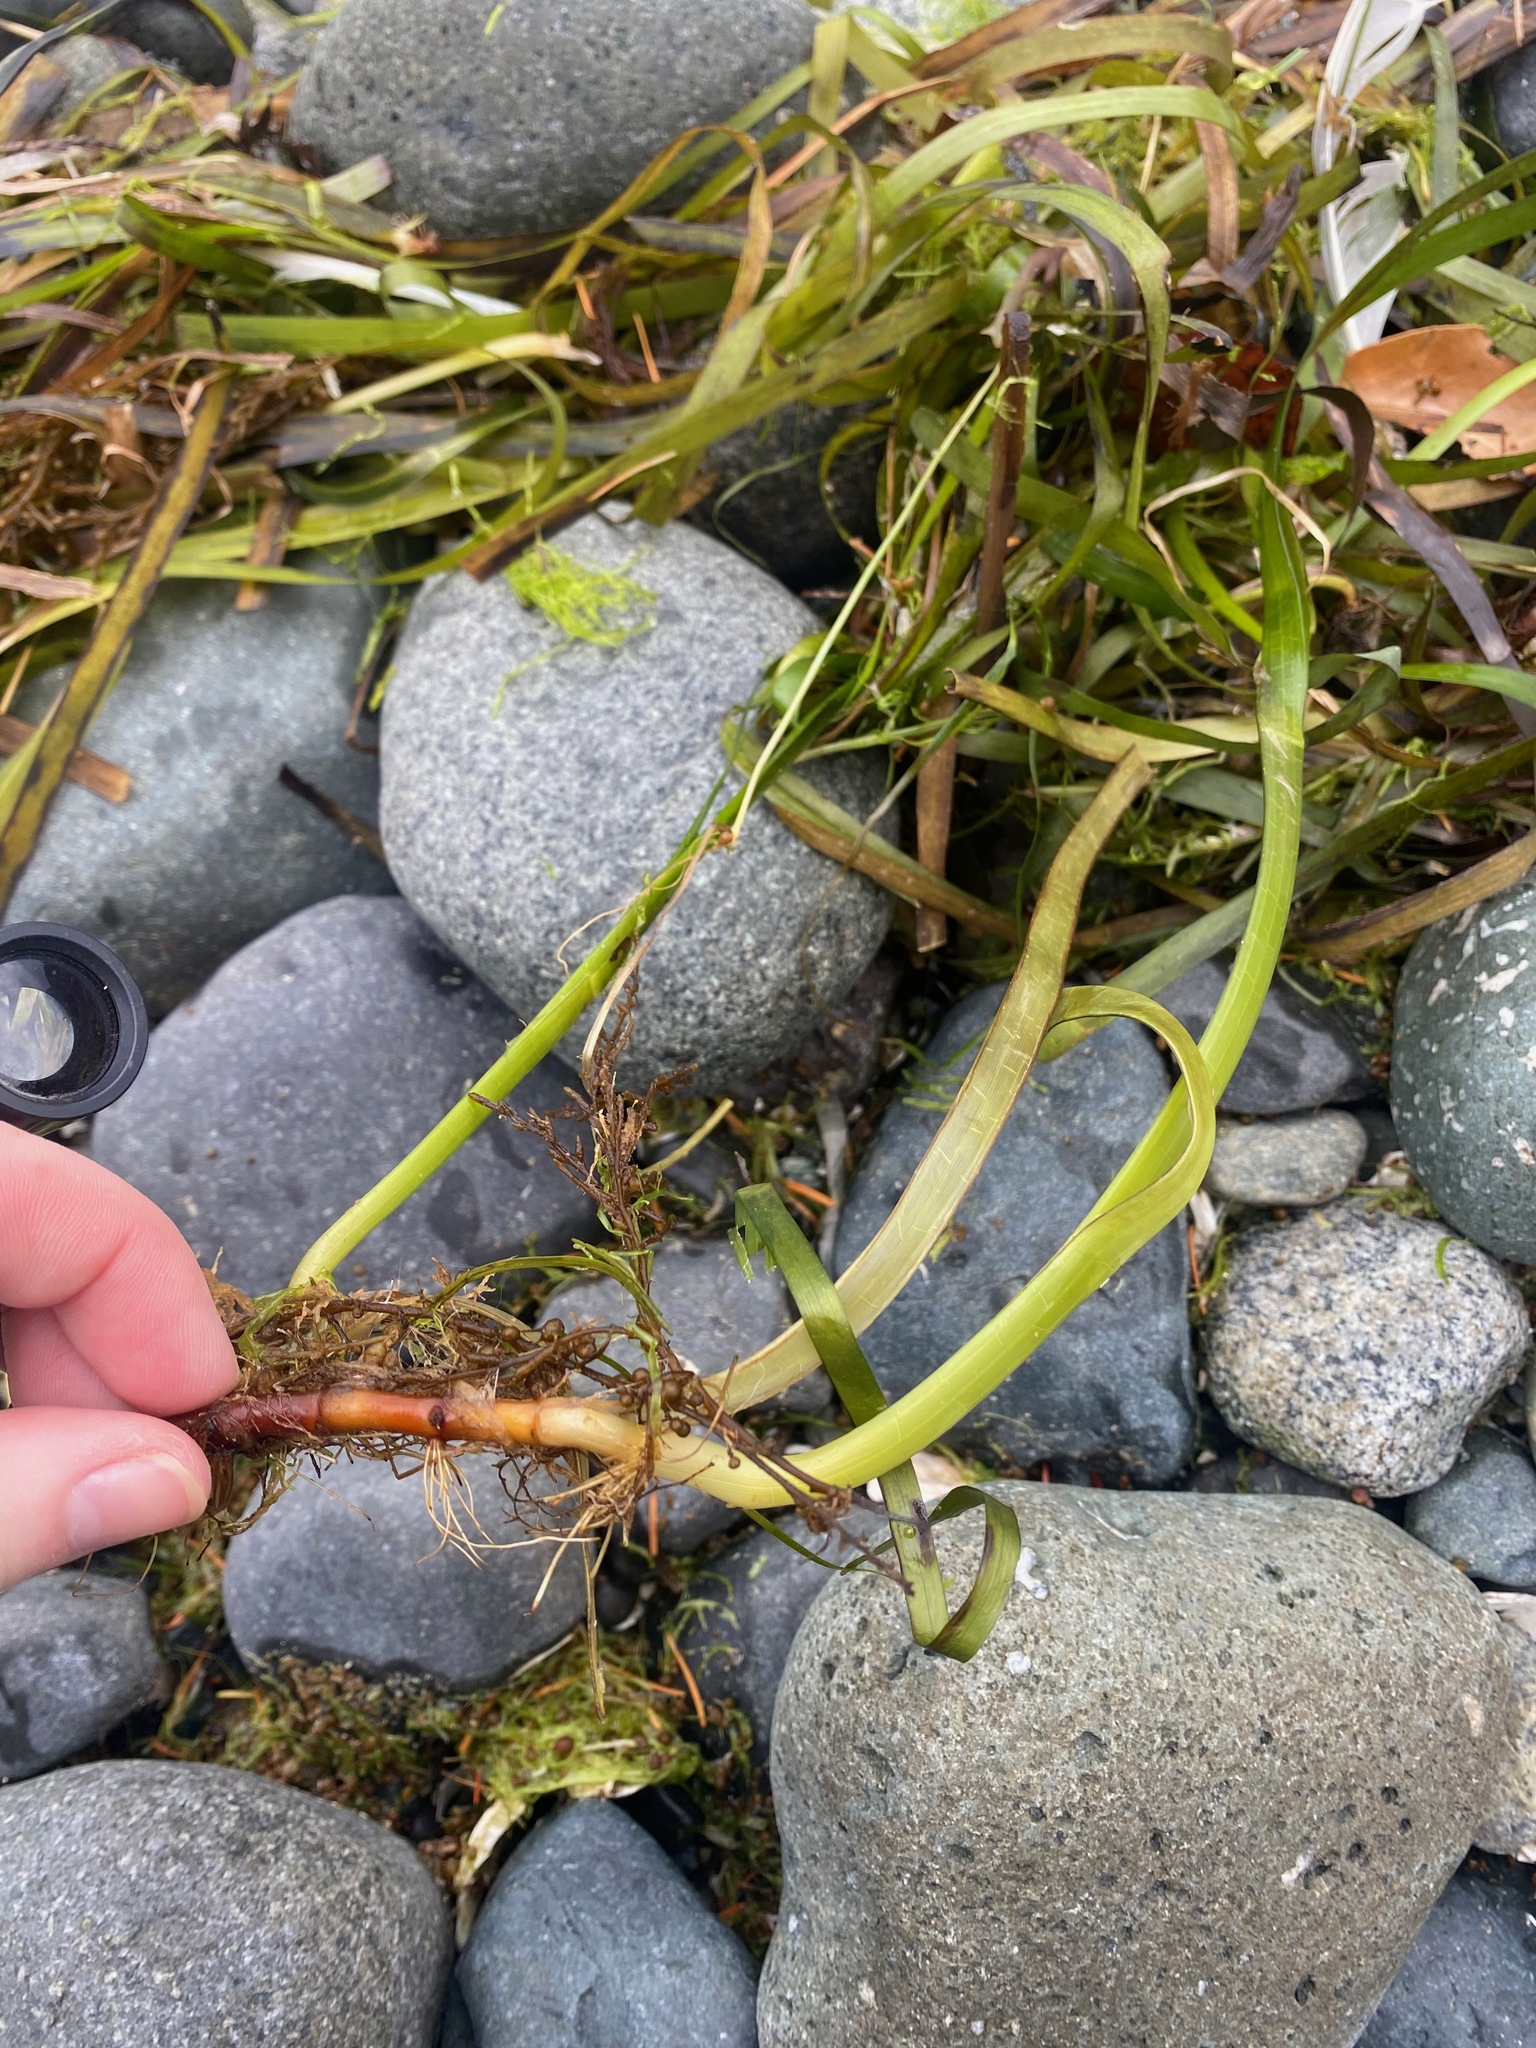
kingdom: Plantae
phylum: Tracheophyta
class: Liliopsida
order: Alismatales
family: Zosteraceae
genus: Zostera
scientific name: Zostera marina
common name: Eelgrass
